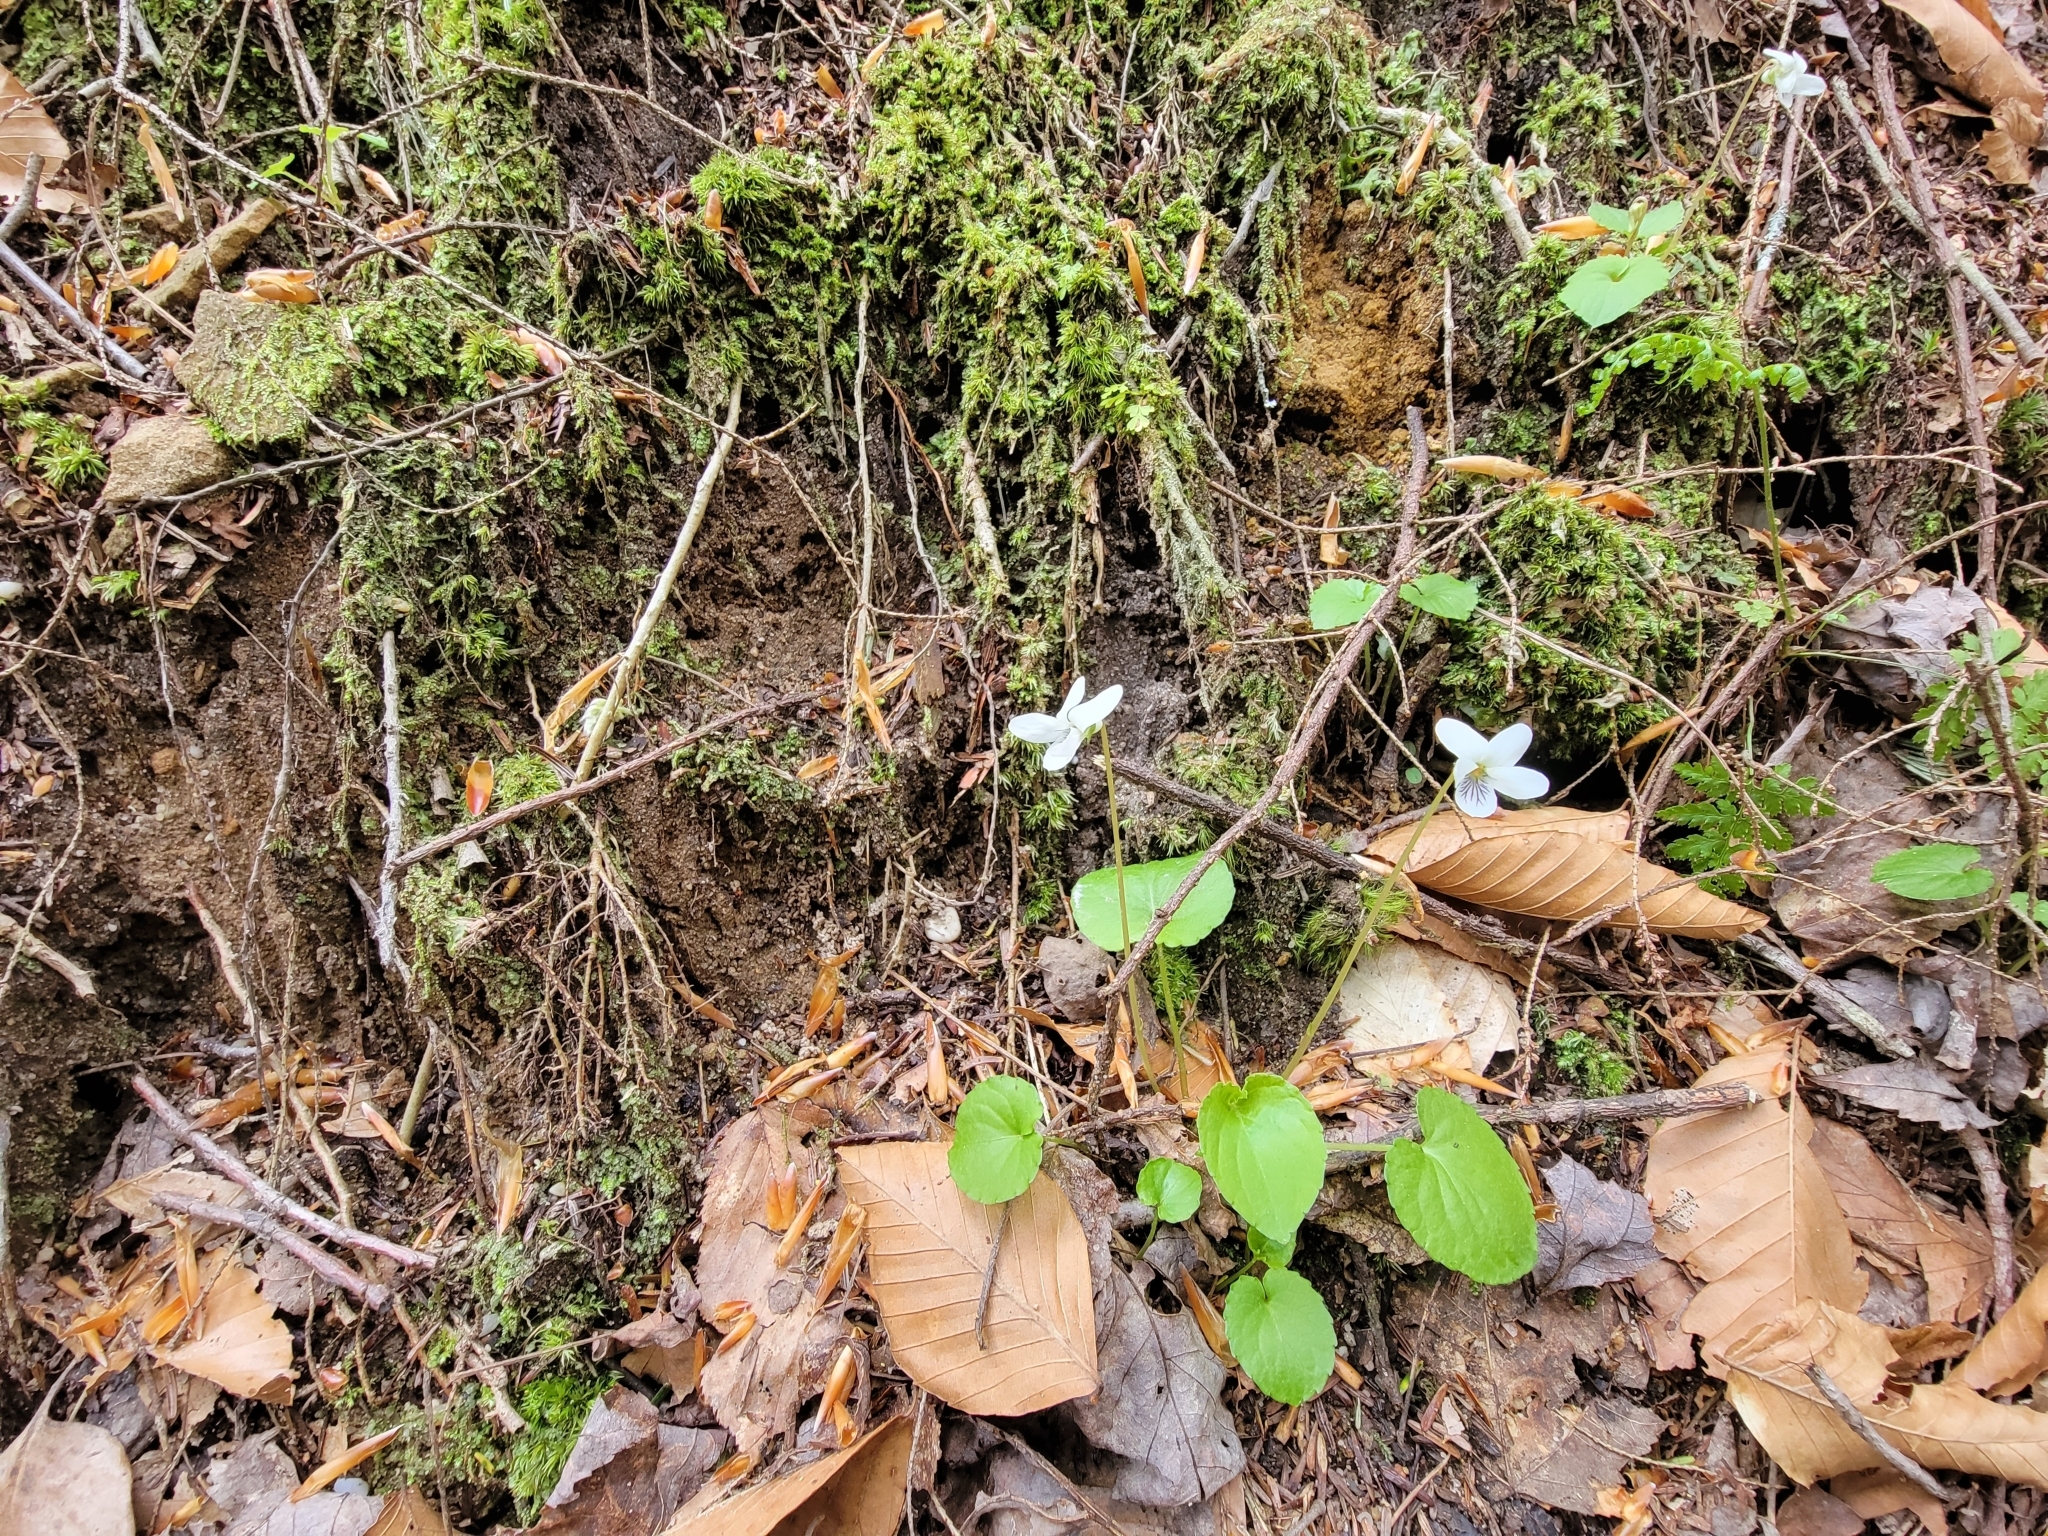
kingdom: Plantae
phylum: Tracheophyta
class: Magnoliopsida
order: Malpighiales
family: Violaceae
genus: Viola
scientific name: Viola blanda
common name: Sweet white violet
